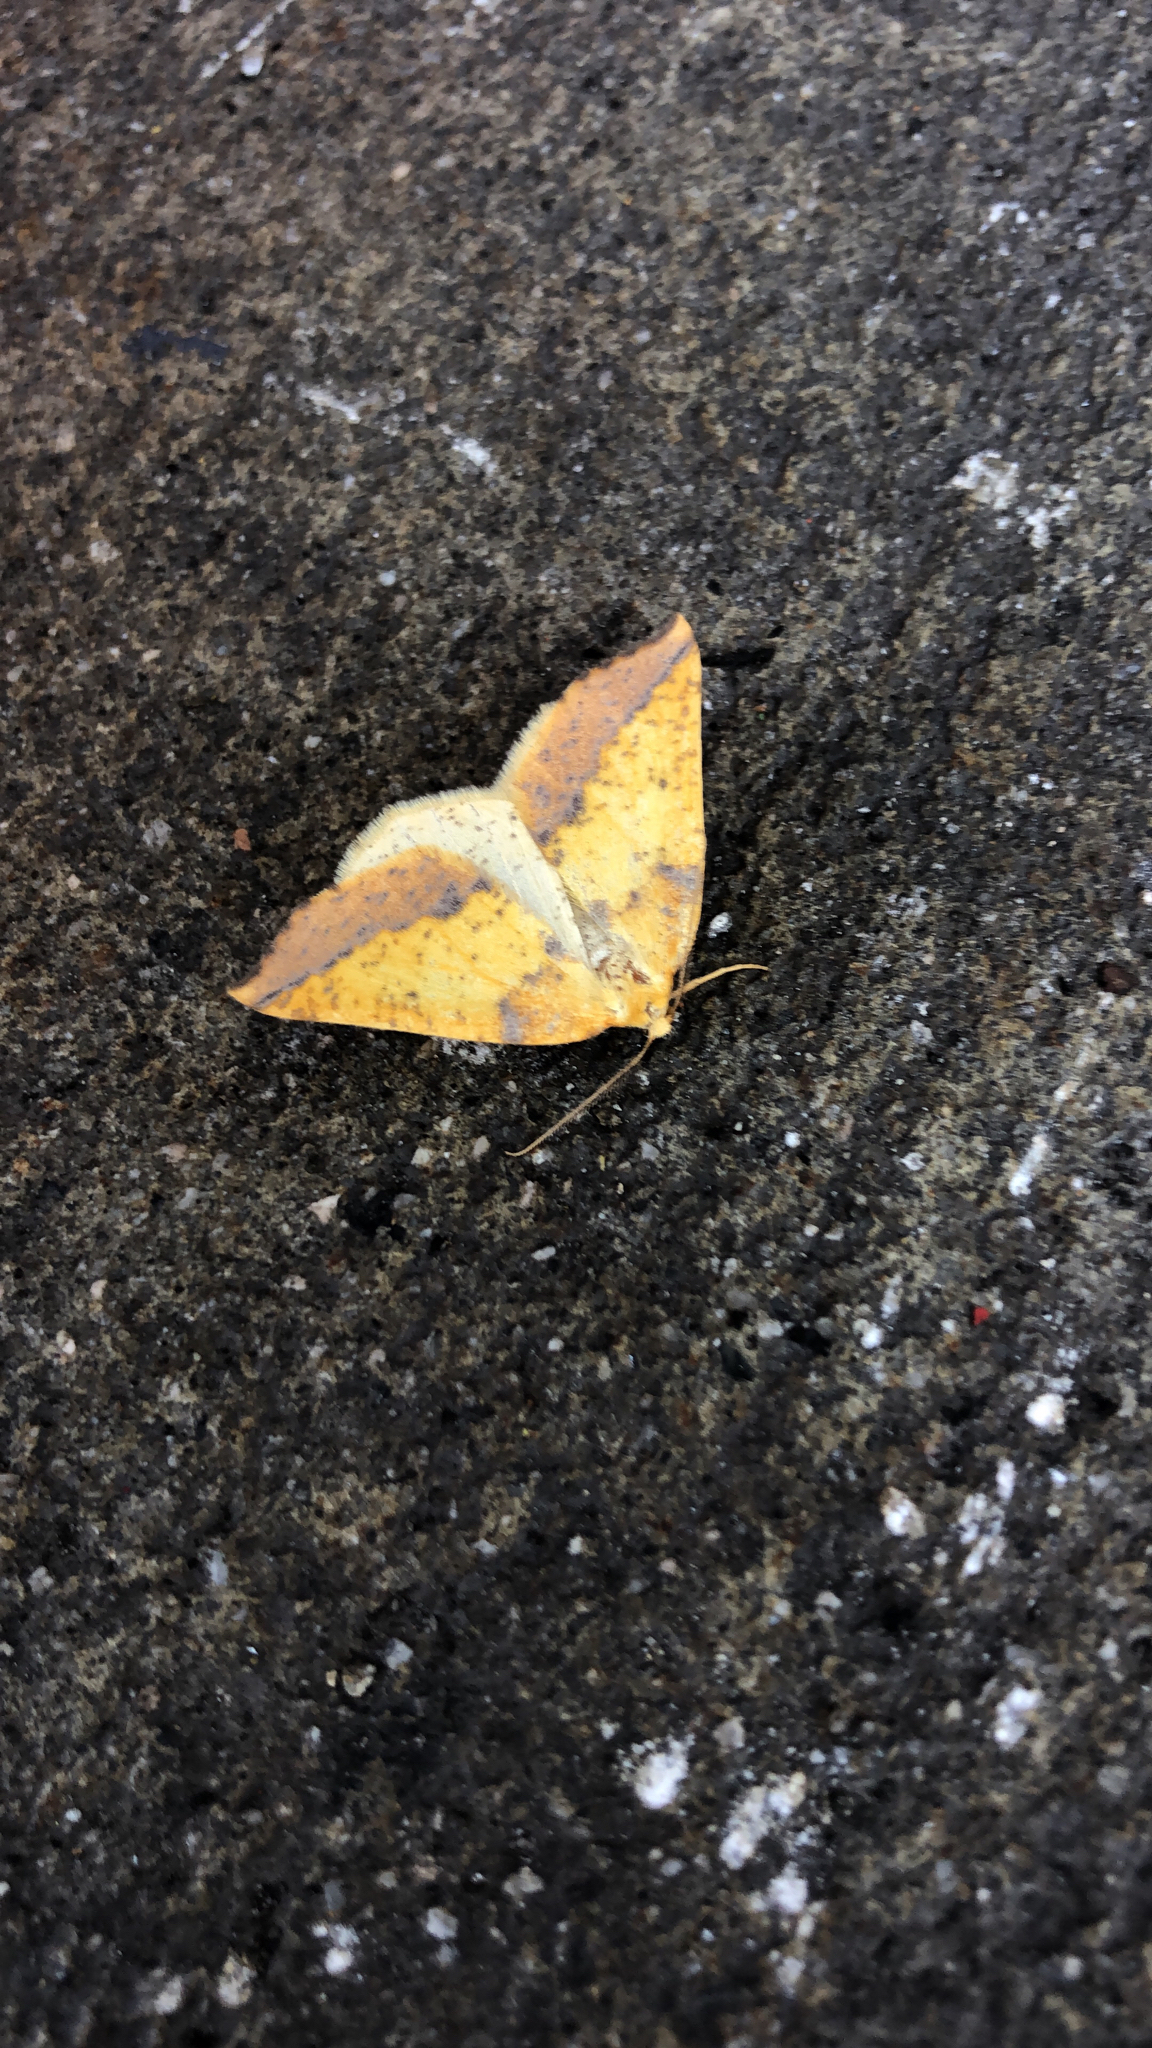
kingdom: Animalia
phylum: Arthropoda
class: Insecta
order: Lepidoptera
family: Geometridae
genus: Neoterpes
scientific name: Neoterpes edwardsata
